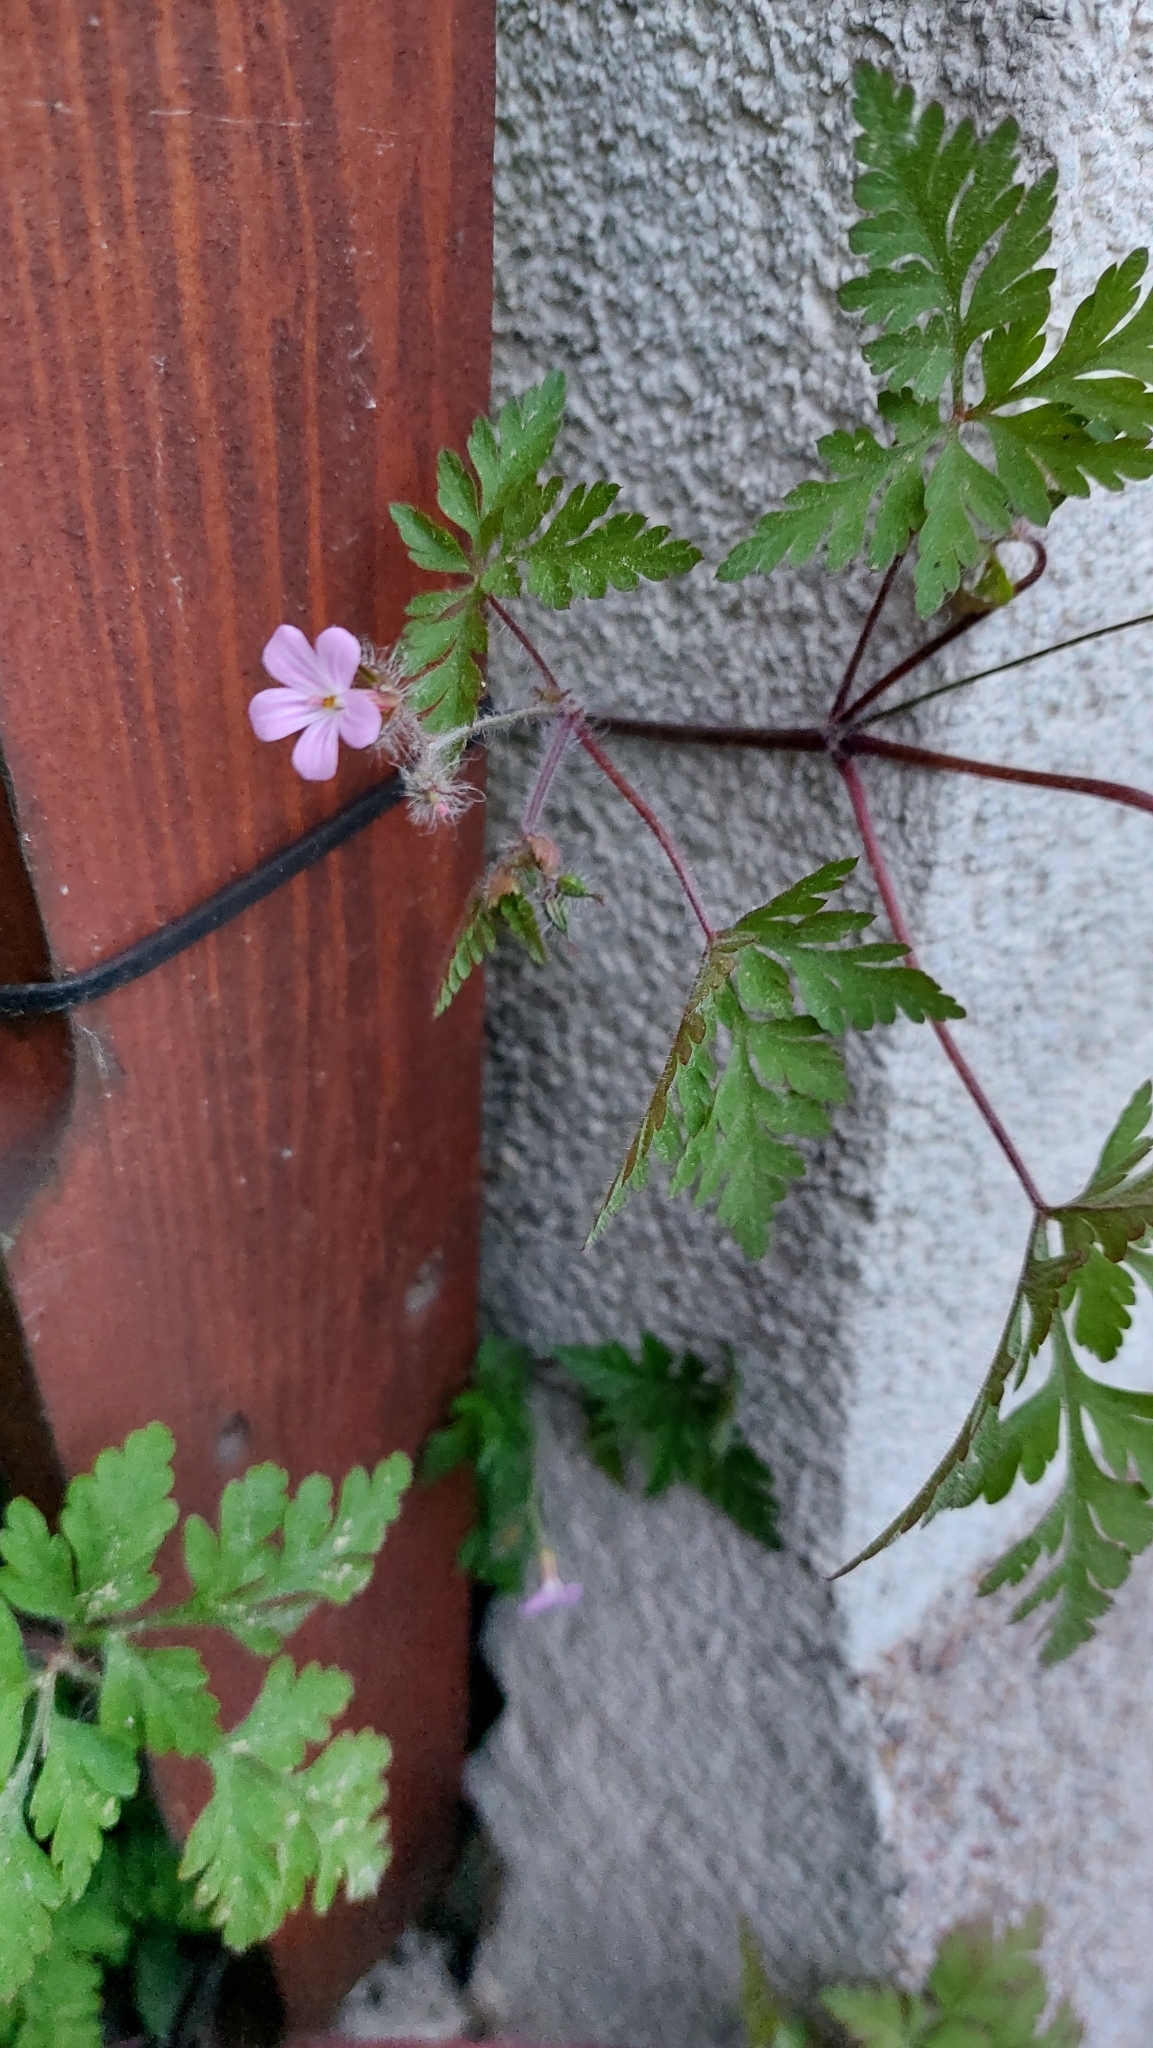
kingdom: Plantae
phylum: Tracheophyta
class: Magnoliopsida
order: Geraniales
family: Geraniaceae
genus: Geranium
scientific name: Geranium robertianum
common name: Herb-robert
